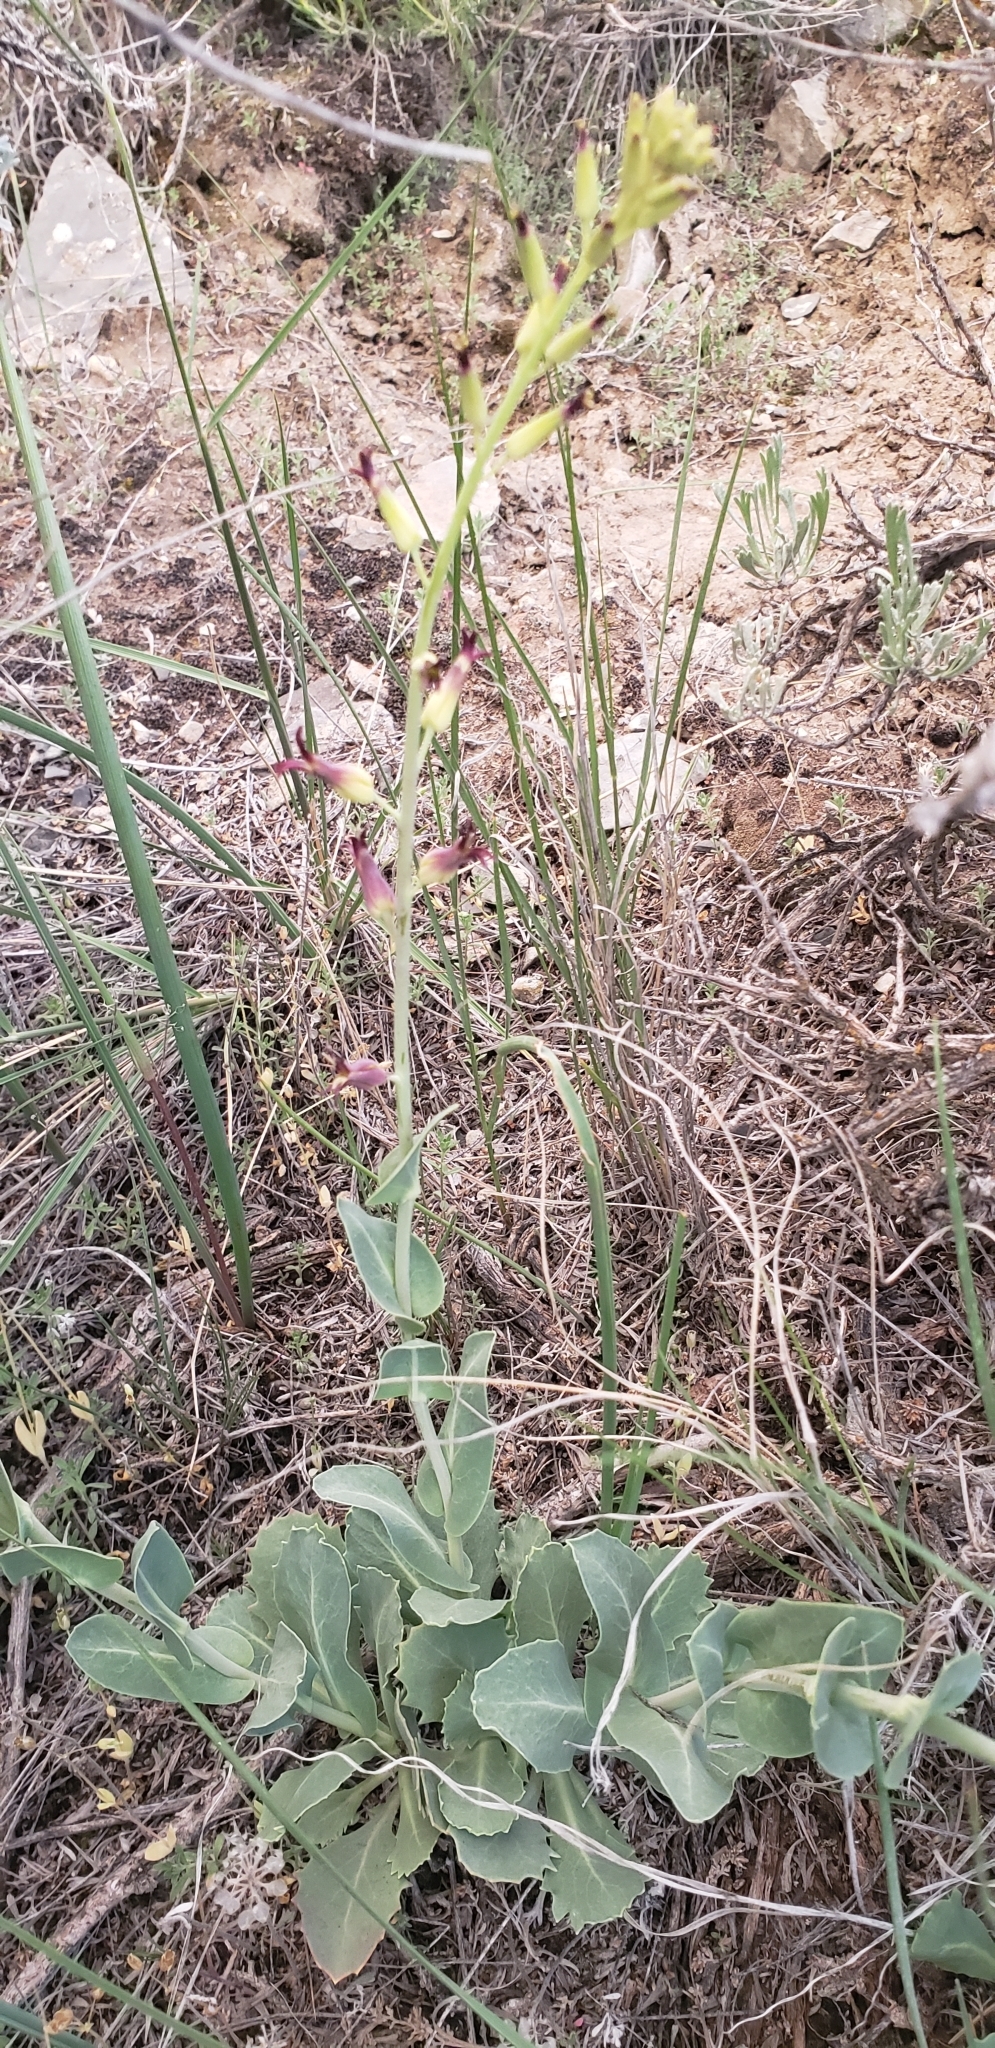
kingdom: Plantae
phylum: Tracheophyta
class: Magnoliopsida
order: Brassicales
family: Brassicaceae
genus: Streptanthus
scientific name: Streptanthus cordatus
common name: Heart-leaf jewel-flower
